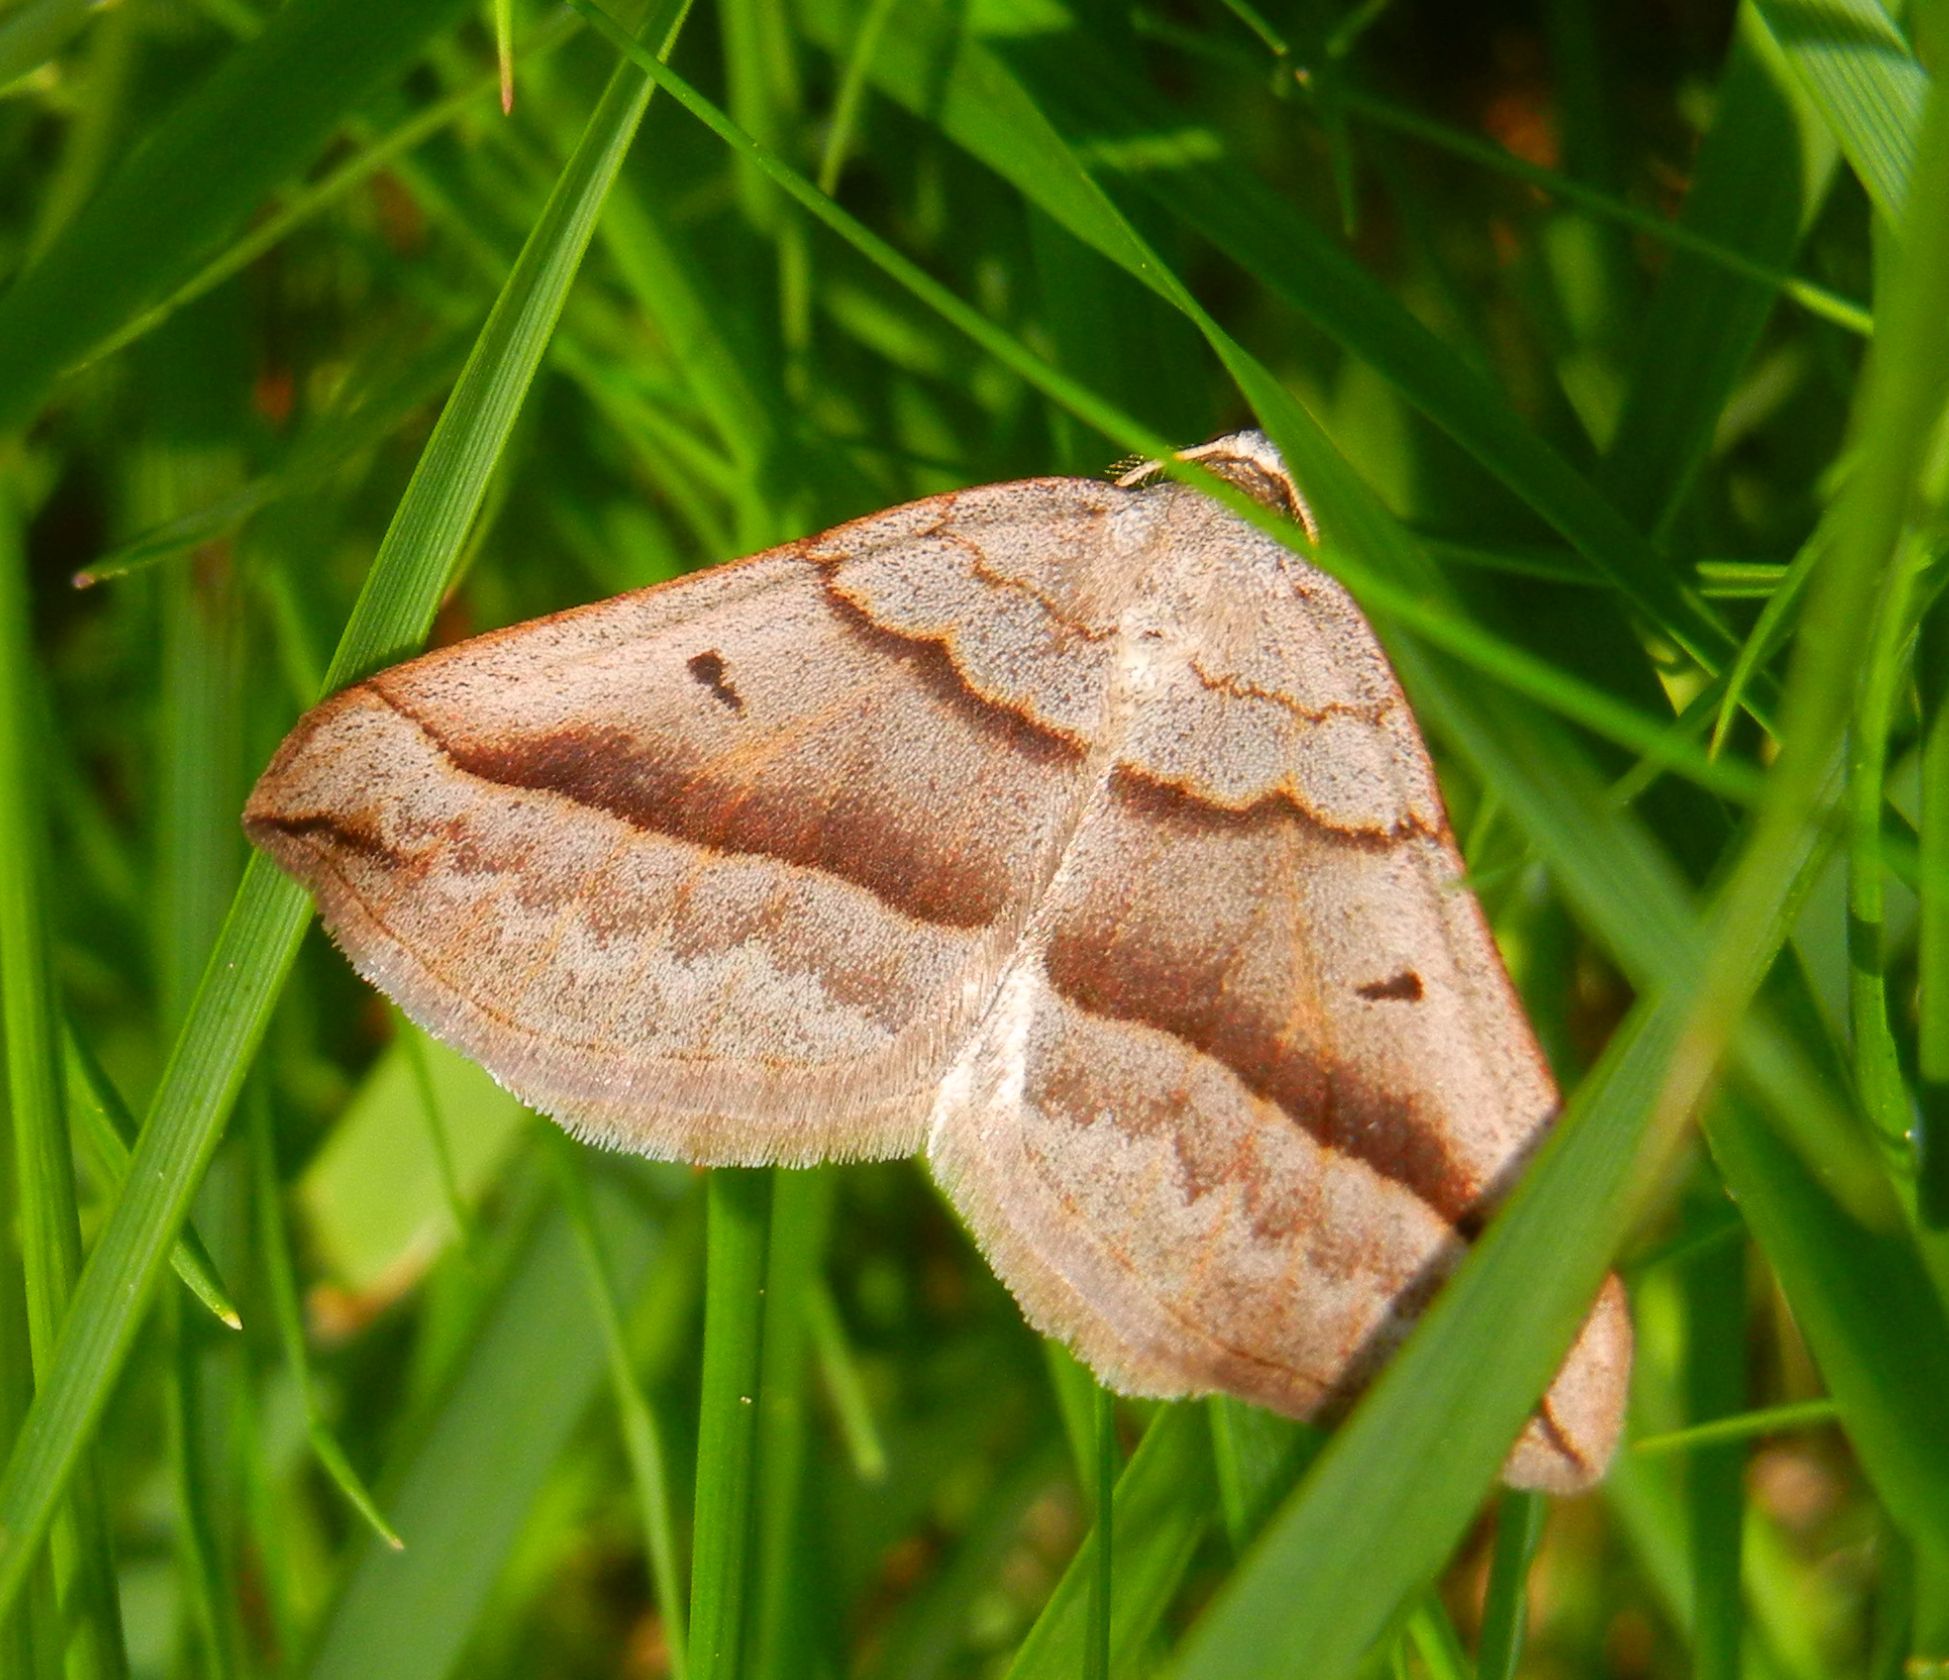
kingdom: Animalia
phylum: Arthropoda
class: Insecta
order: Lepidoptera
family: Geometridae
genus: Scotopteryx
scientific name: Scotopteryx mucronata
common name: Lead belle
